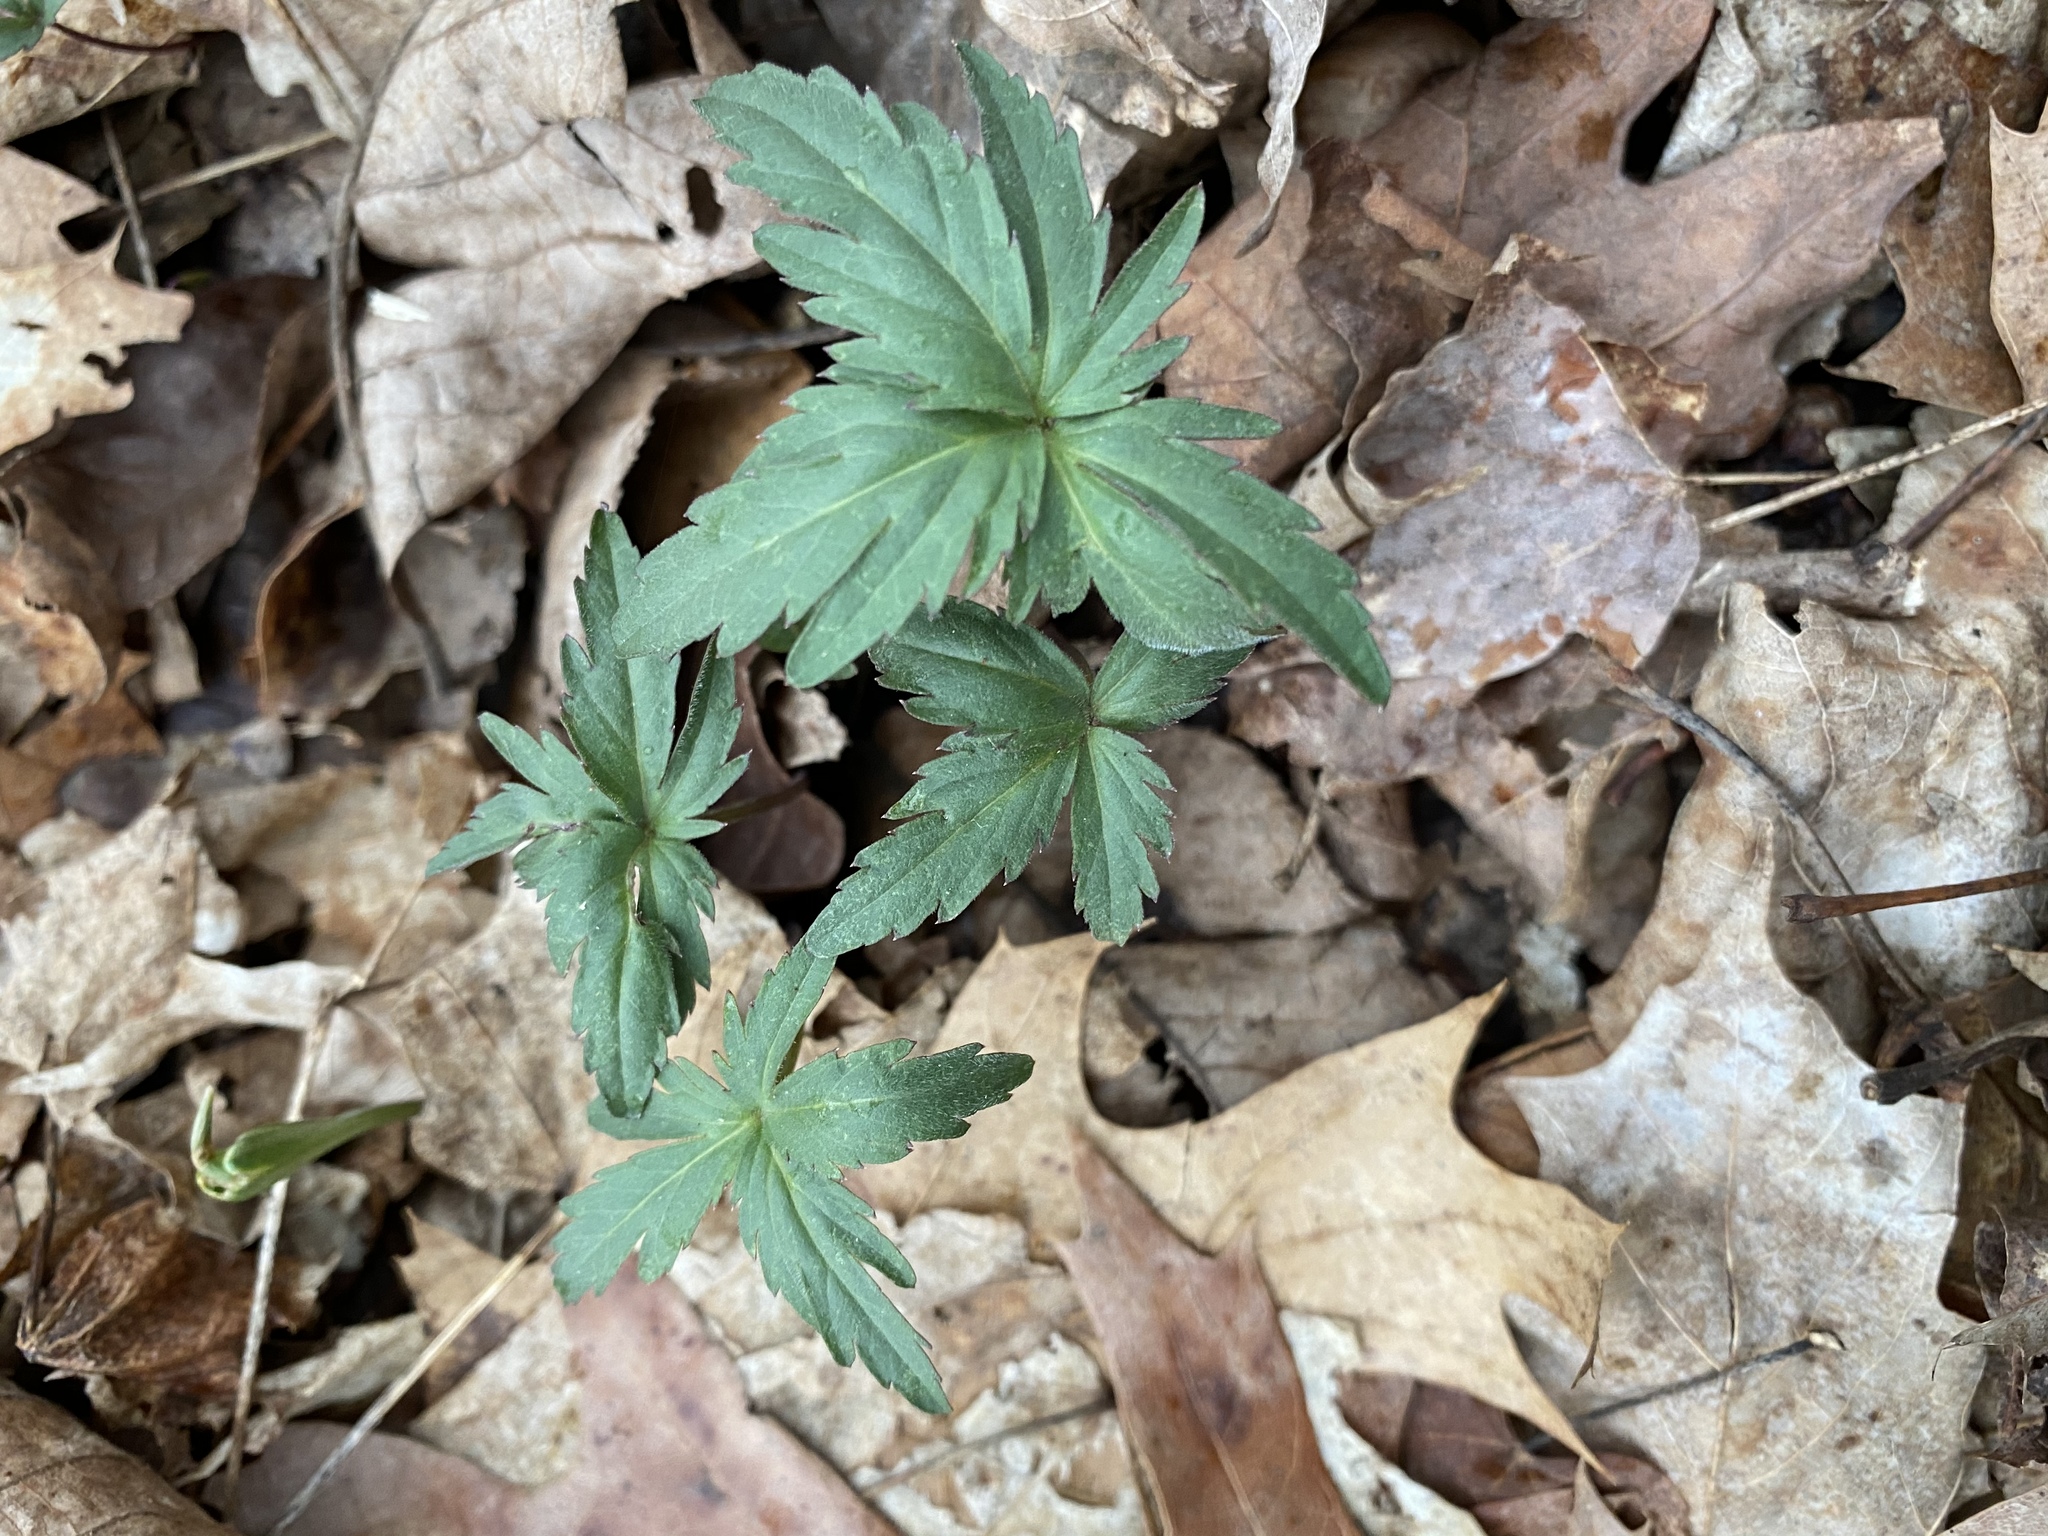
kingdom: Plantae
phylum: Tracheophyta
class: Magnoliopsida
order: Brassicales
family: Brassicaceae
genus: Cardamine
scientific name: Cardamine concatenata
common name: Cut-leaf toothcup
